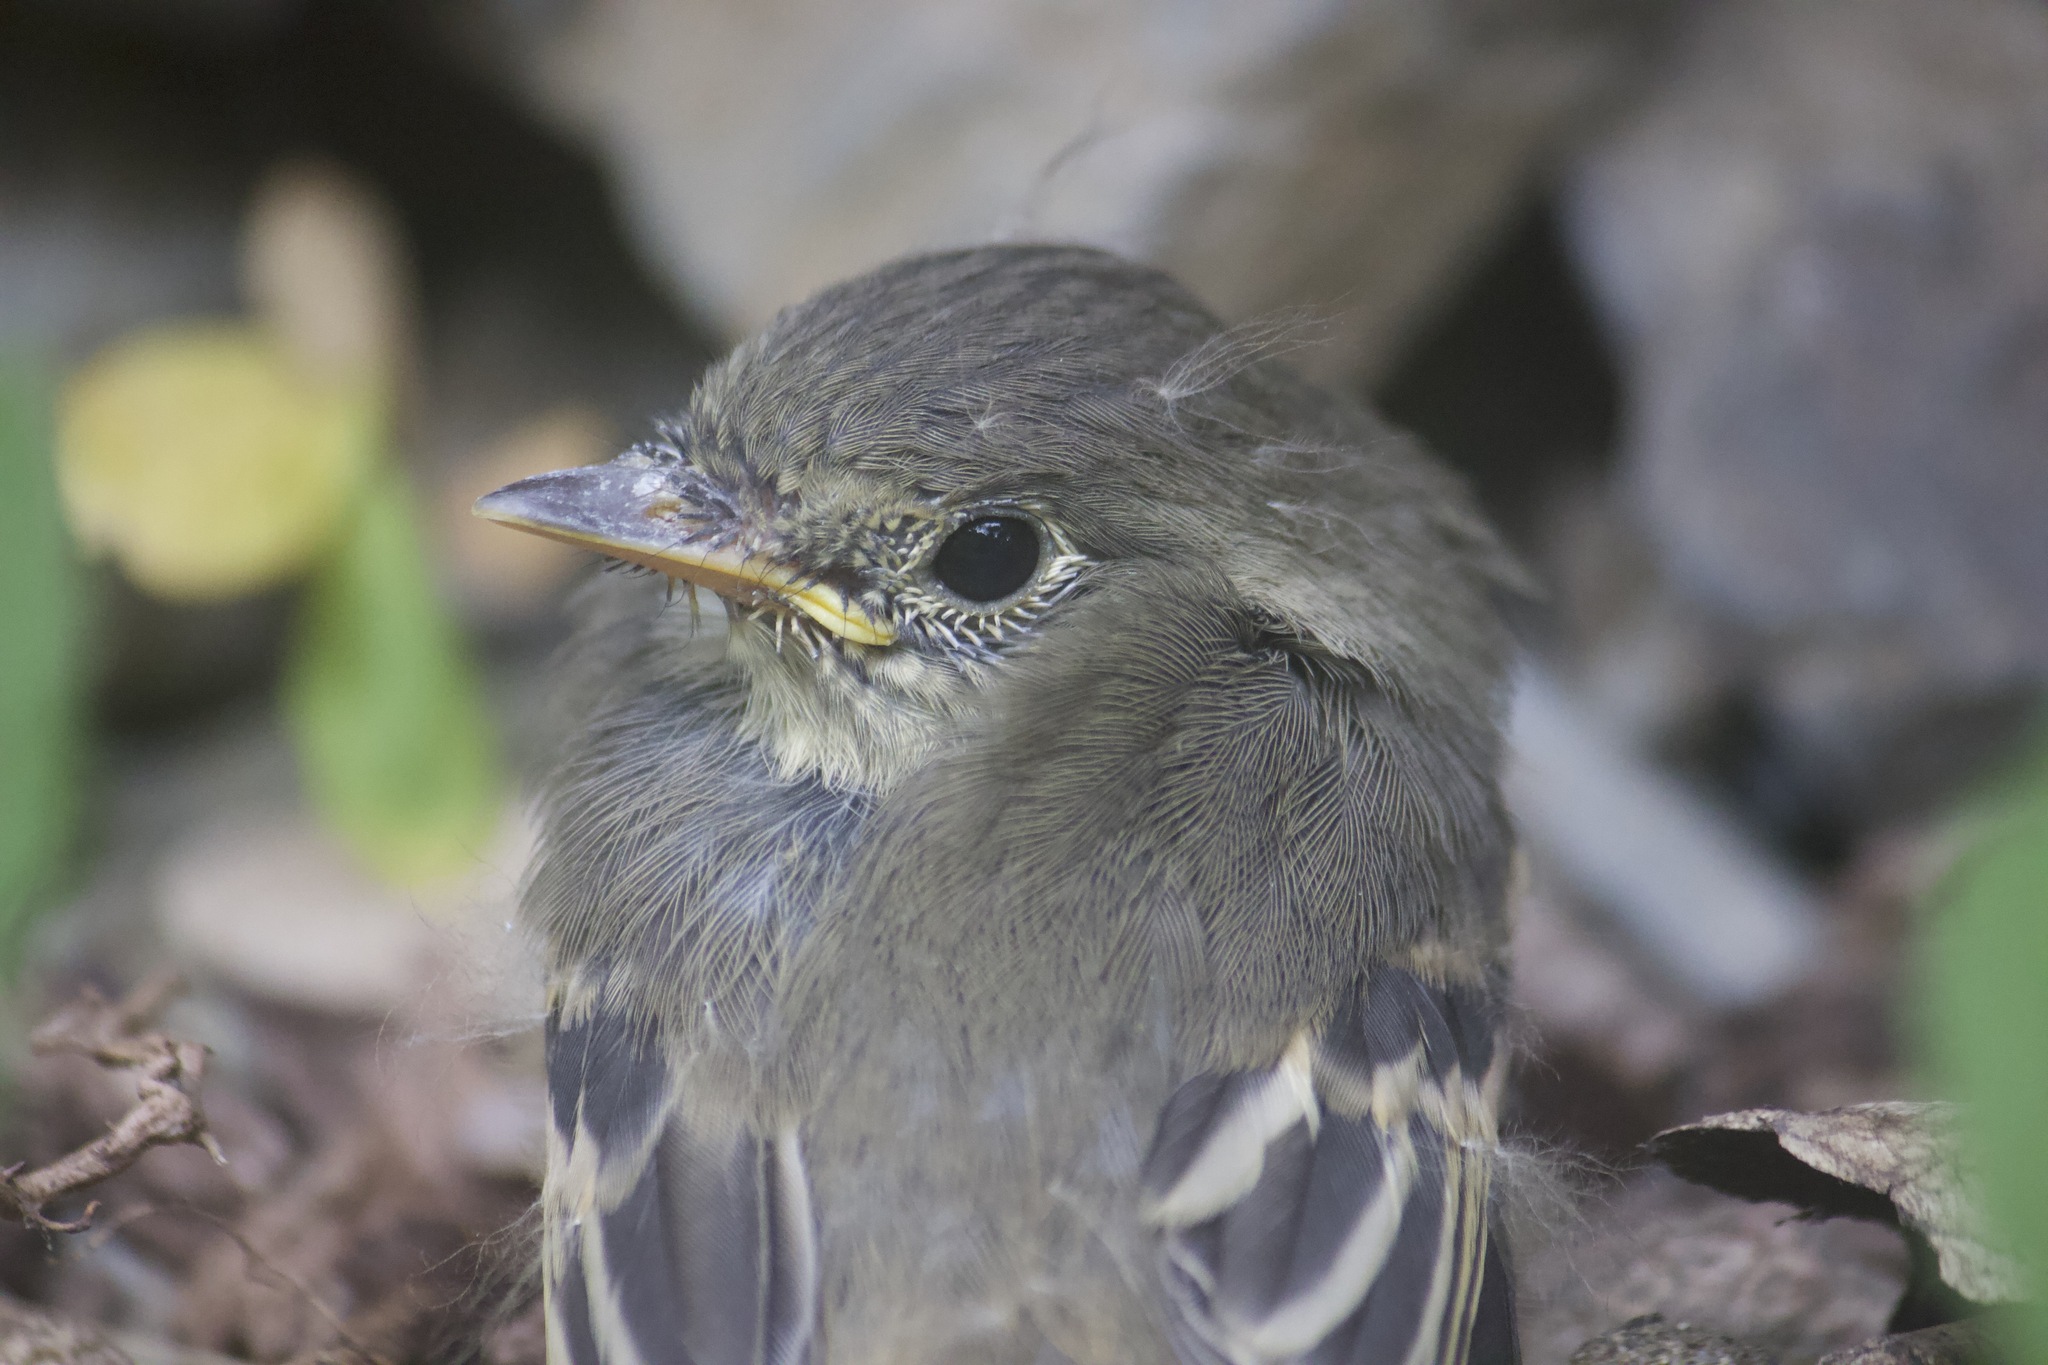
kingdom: Animalia
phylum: Chordata
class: Aves
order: Passeriformes
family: Tyrannidae
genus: Empidonax
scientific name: Empidonax difficilis
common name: Pacific-slope flycatcher
